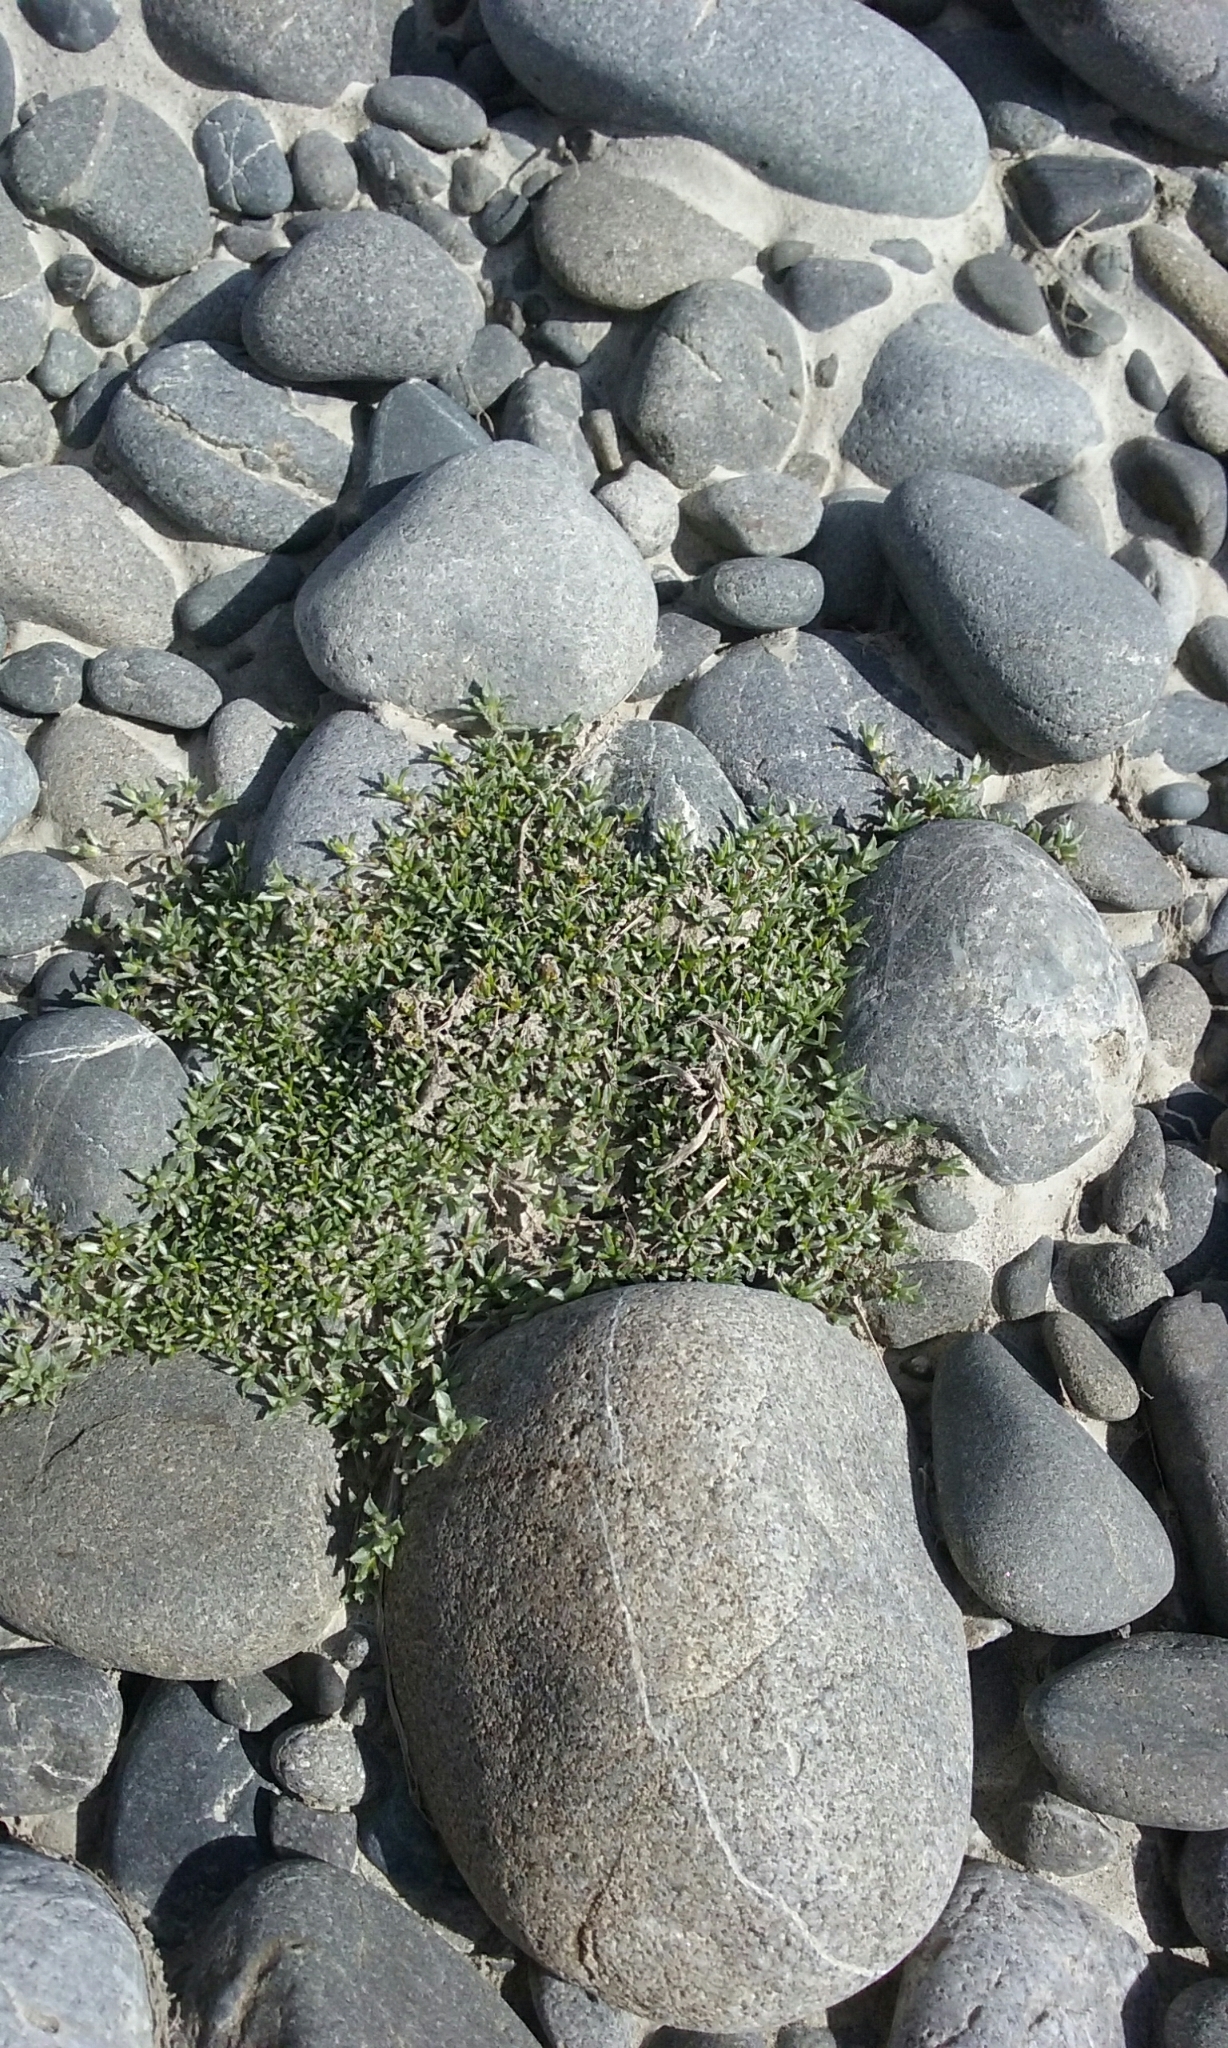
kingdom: Plantae
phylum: Tracheophyta
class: Magnoliopsida
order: Asterales
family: Asteraceae
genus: Raoulia
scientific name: Raoulia tenuicaulis
